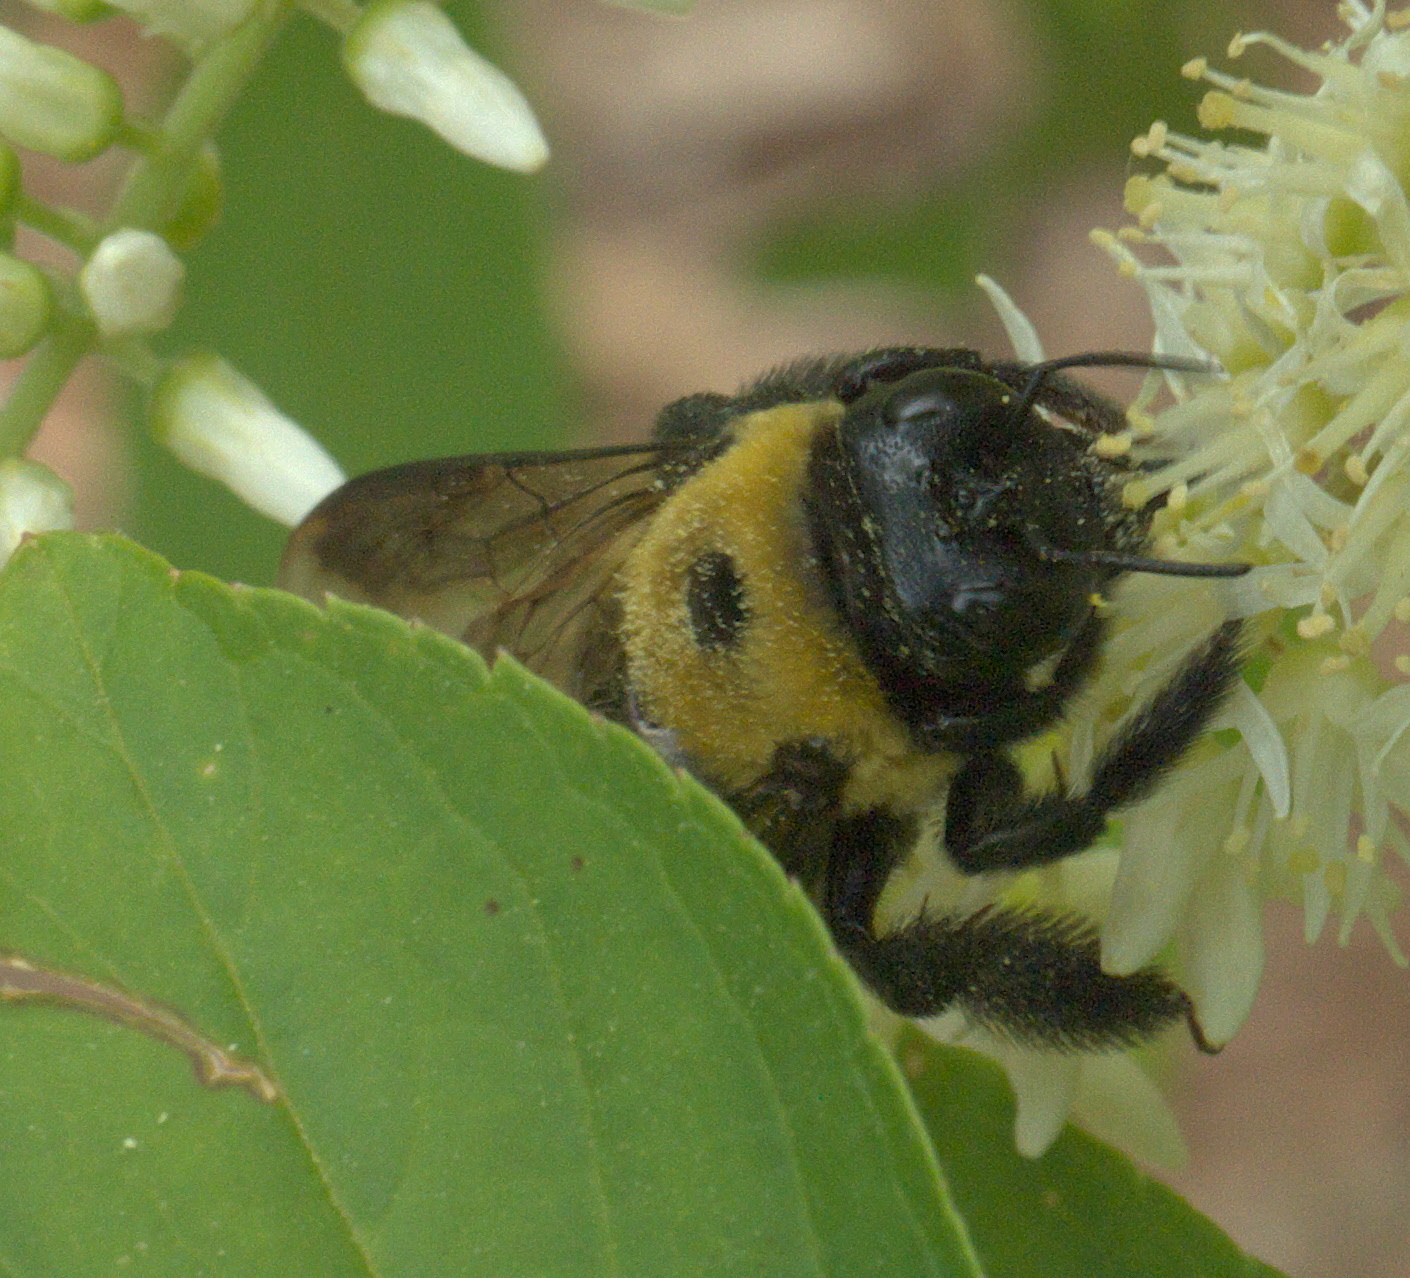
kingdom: Animalia
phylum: Arthropoda
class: Insecta
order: Hymenoptera
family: Apidae
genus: Xylocopa
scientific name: Xylocopa virginica
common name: Carpenter bee
